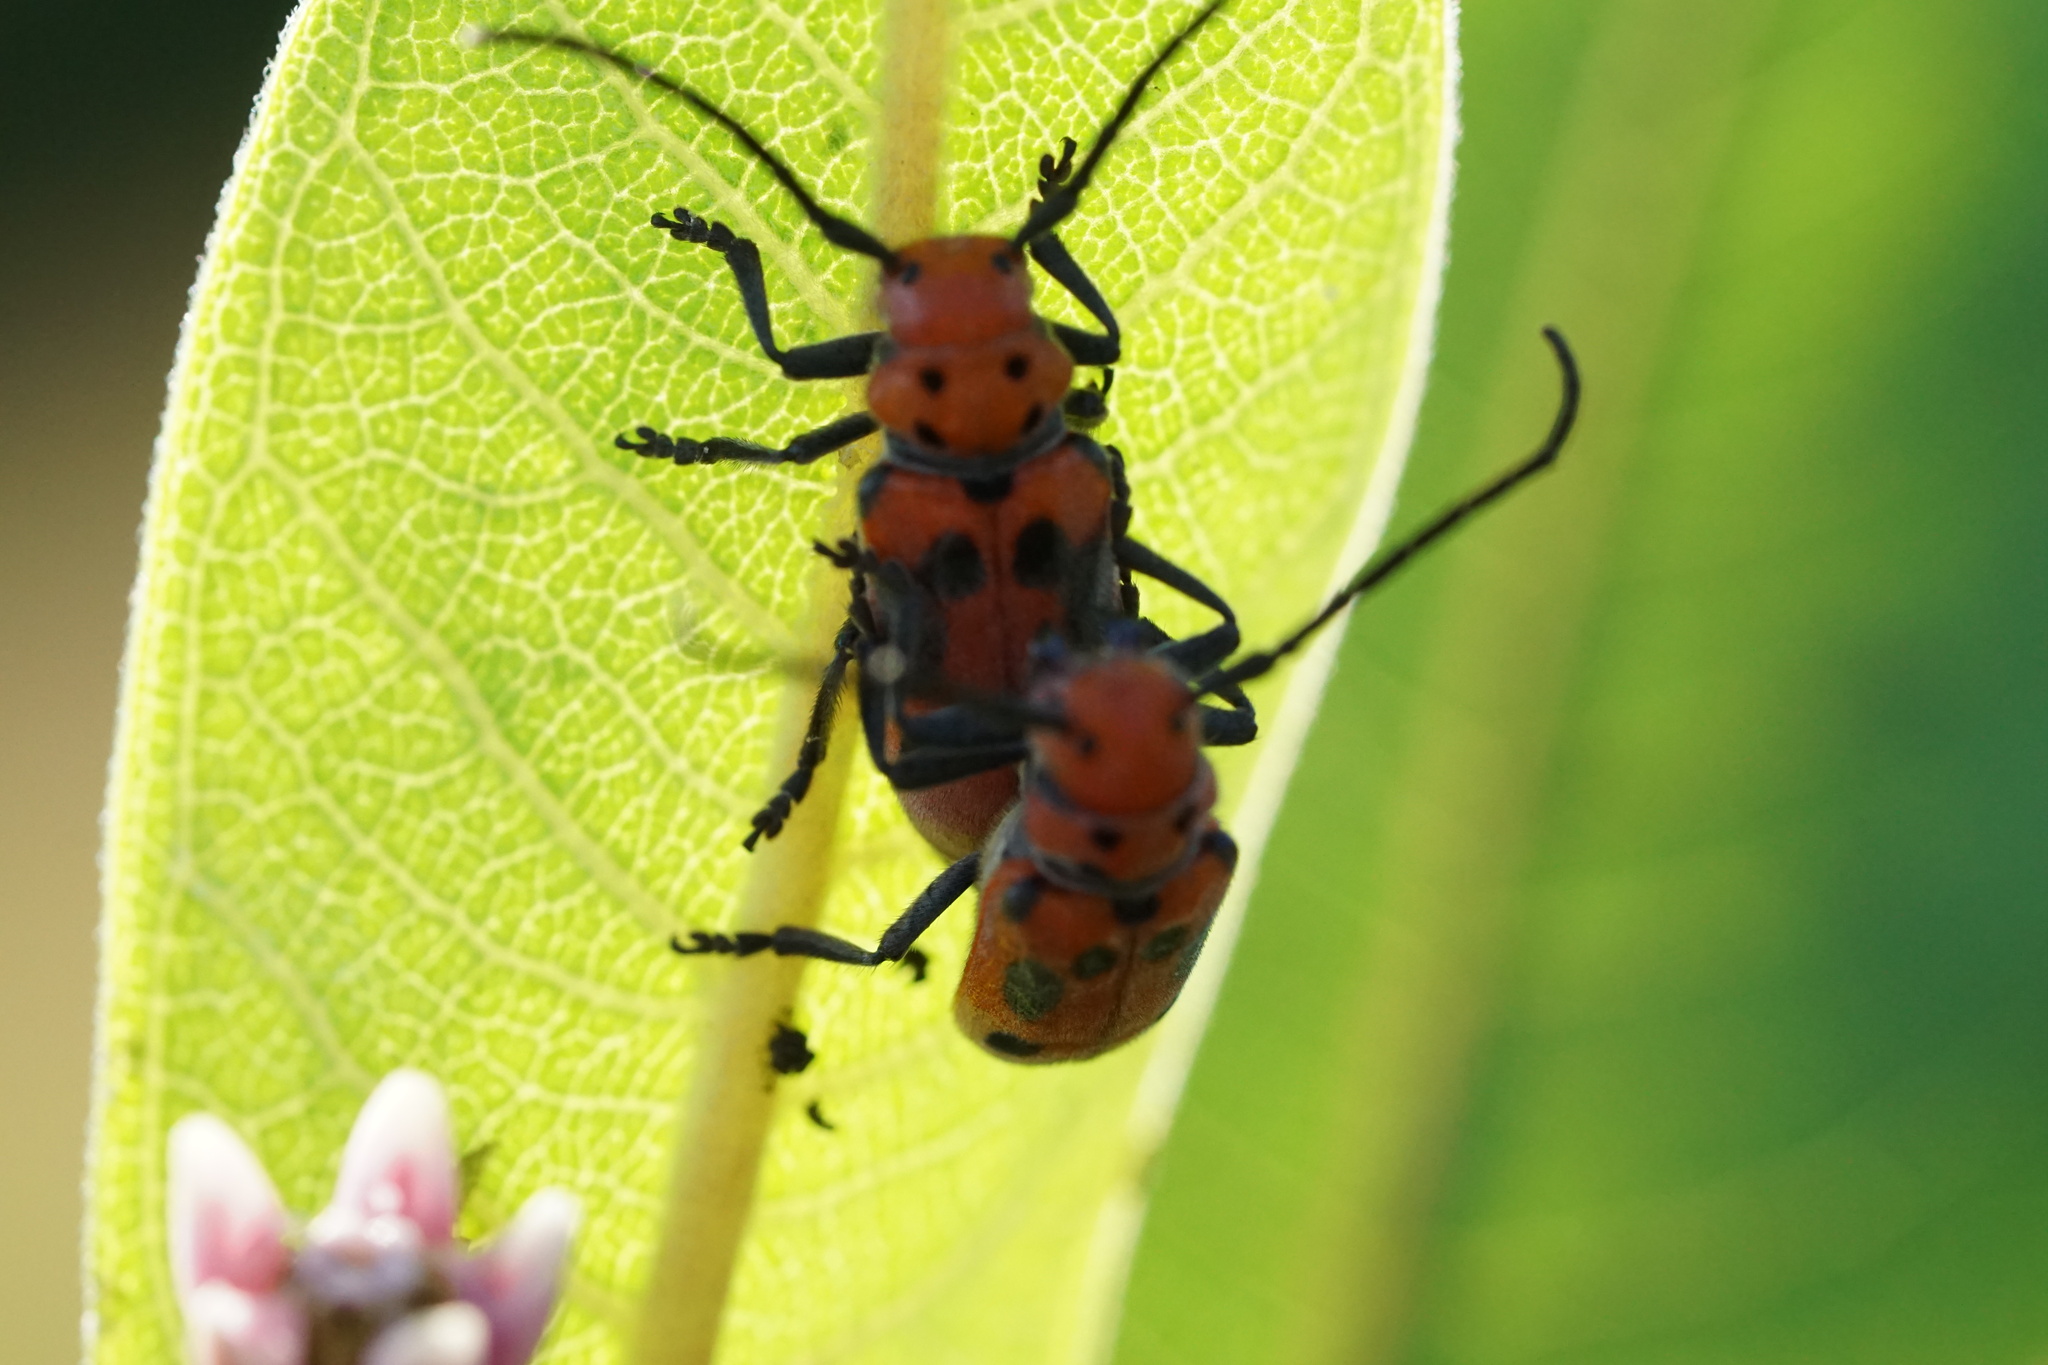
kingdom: Animalia
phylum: Arthropoda
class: Insecta
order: Coleoptera
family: Cerambycidae
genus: Tetraopes
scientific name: Tetraopes tetrophthalmus
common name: Red milkweed beetle
